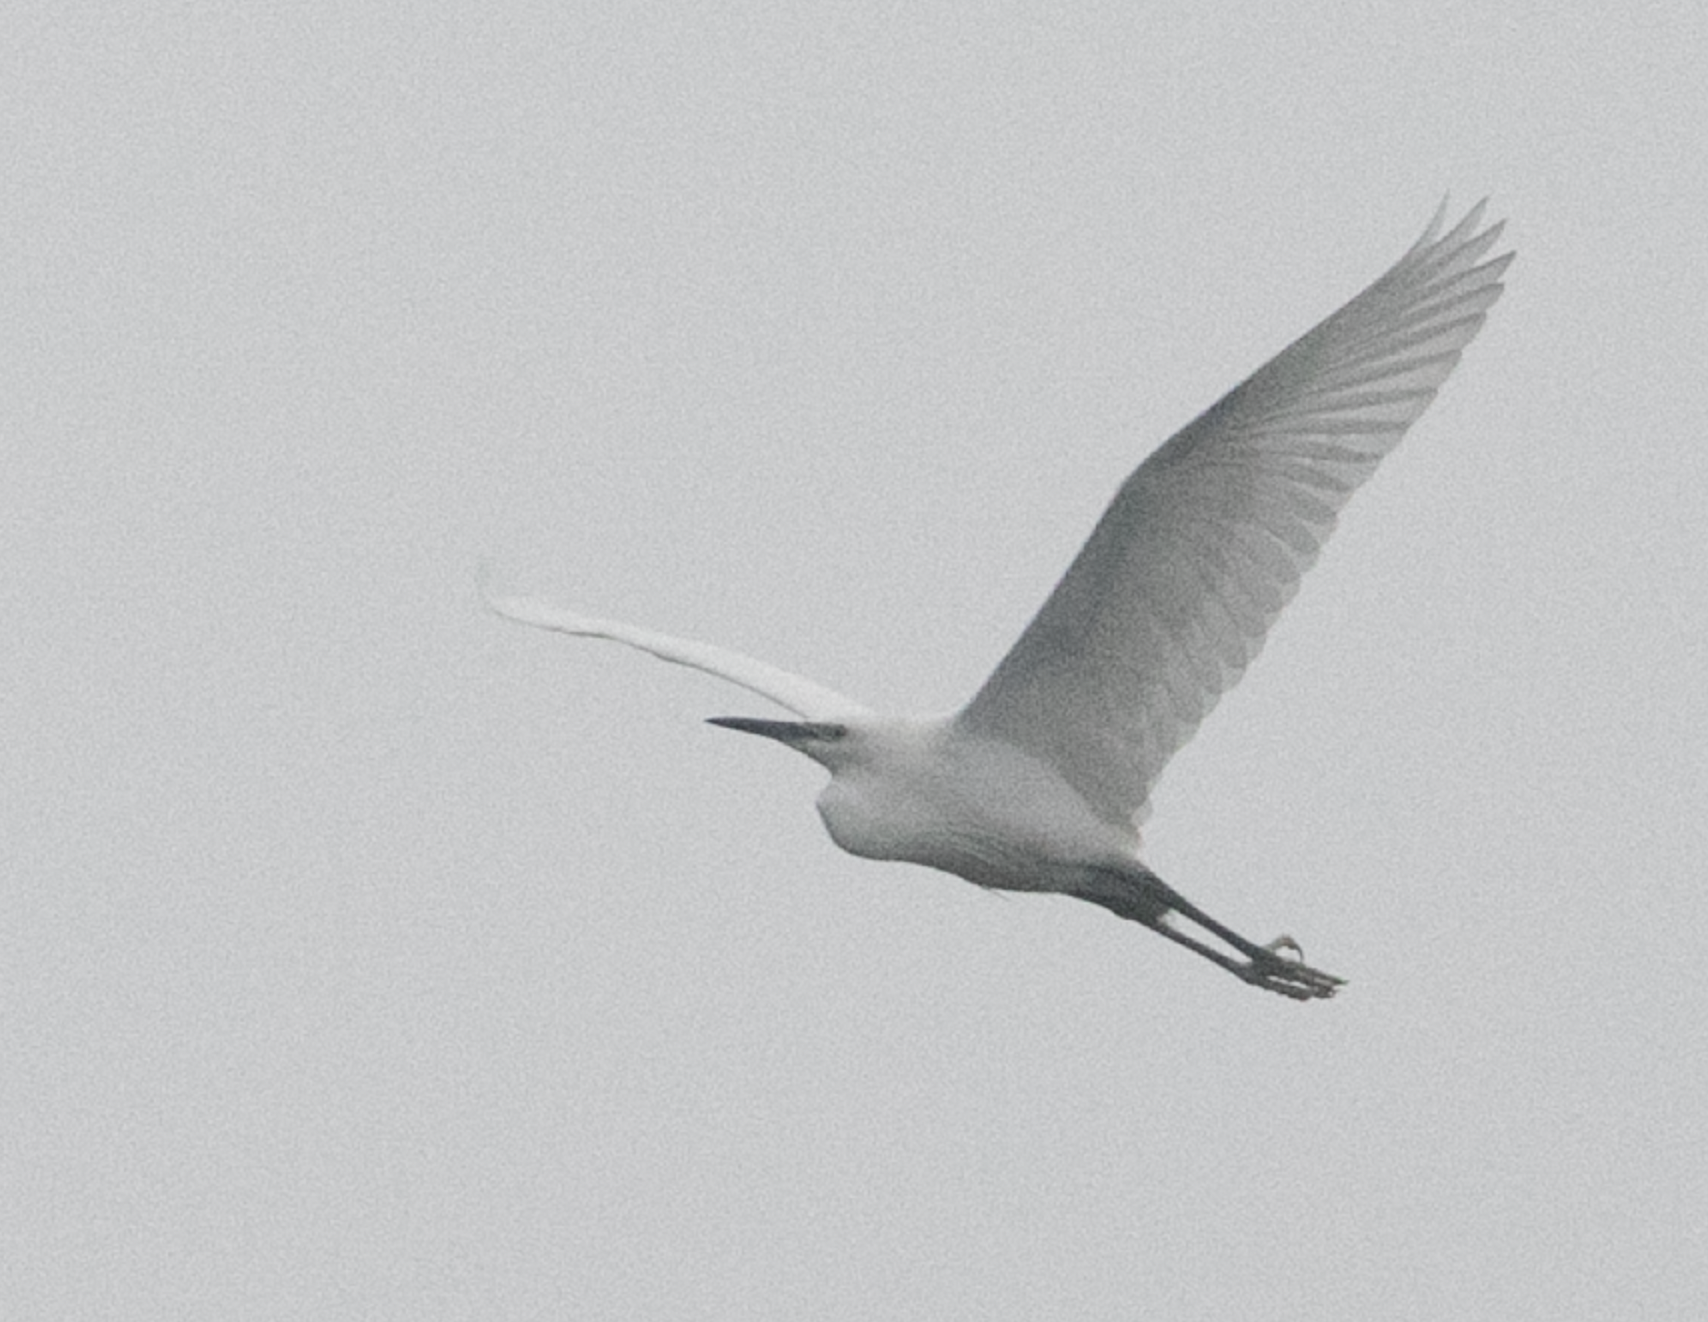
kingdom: Animalia
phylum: Chordata
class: Aves
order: Pelecaniformes
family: Ardeidae
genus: Egretta
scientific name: Egretta garzetta
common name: Little egret
